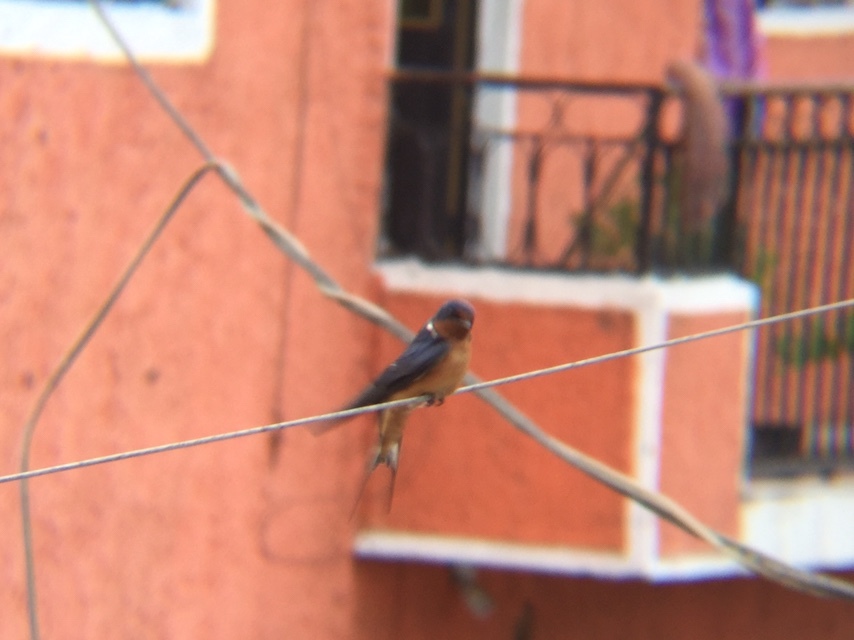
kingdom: Animalia
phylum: Chordata
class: Aves
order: Passeriformes
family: Hirundinidae
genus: Hirundo
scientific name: Hirundo rustica
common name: Barn swallow
